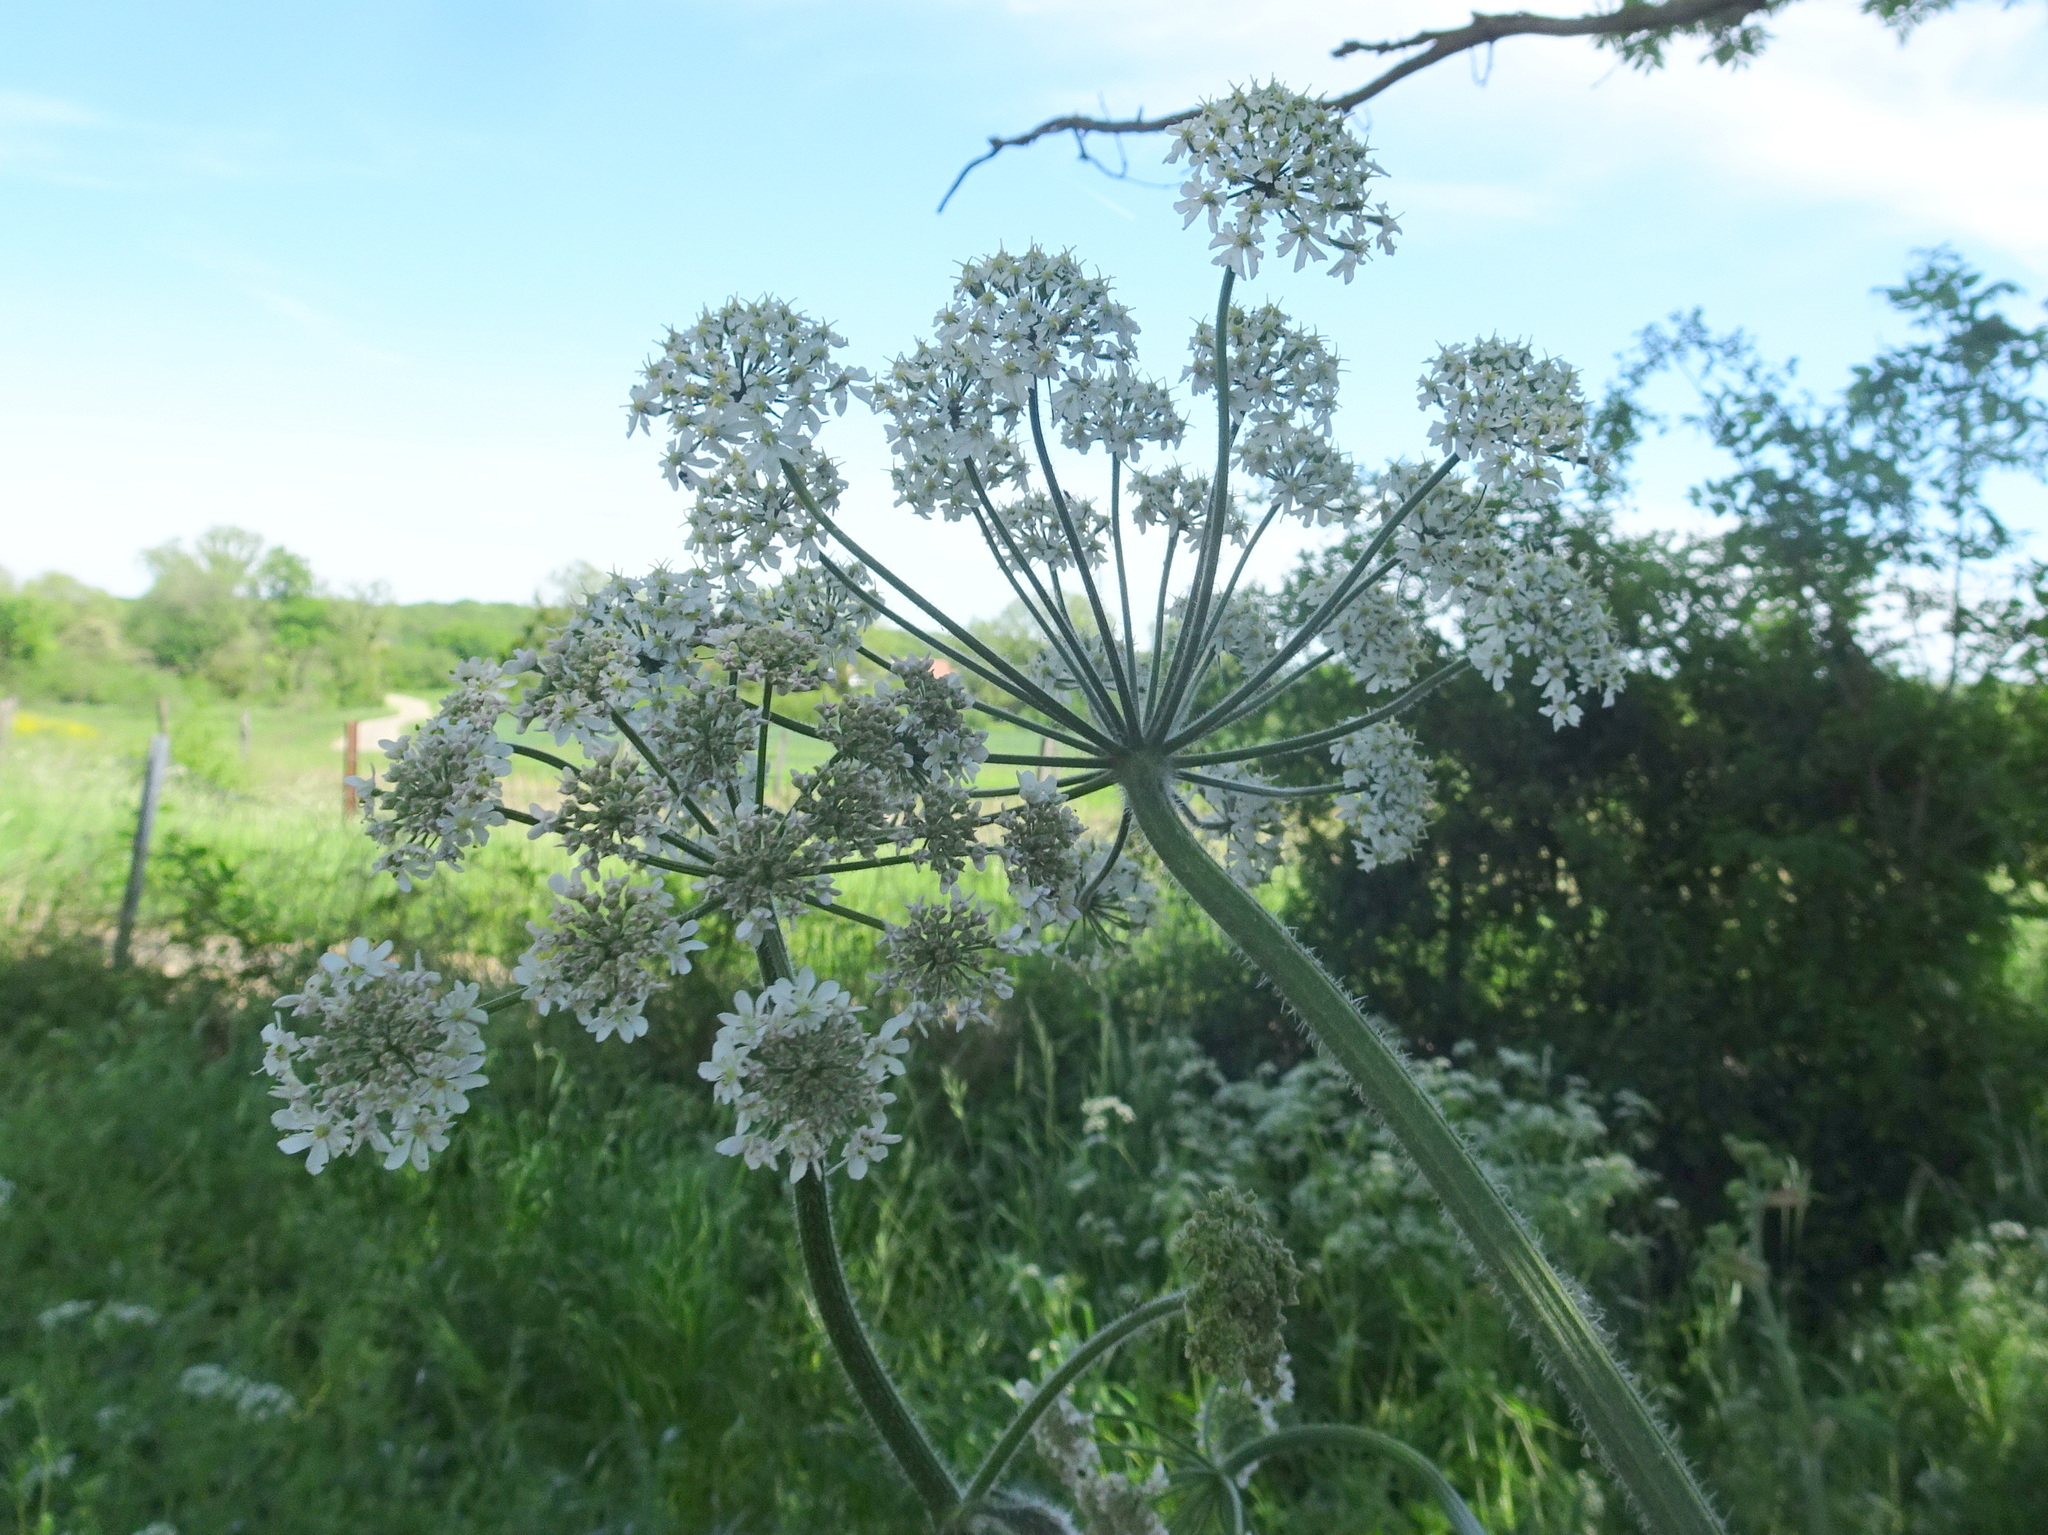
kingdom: Plantae
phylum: Tracheophyta
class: Magnoliopsida
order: Apiales
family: Apiaceae
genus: Heracleum
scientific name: Heracleum sphondylium
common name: Hogweed
